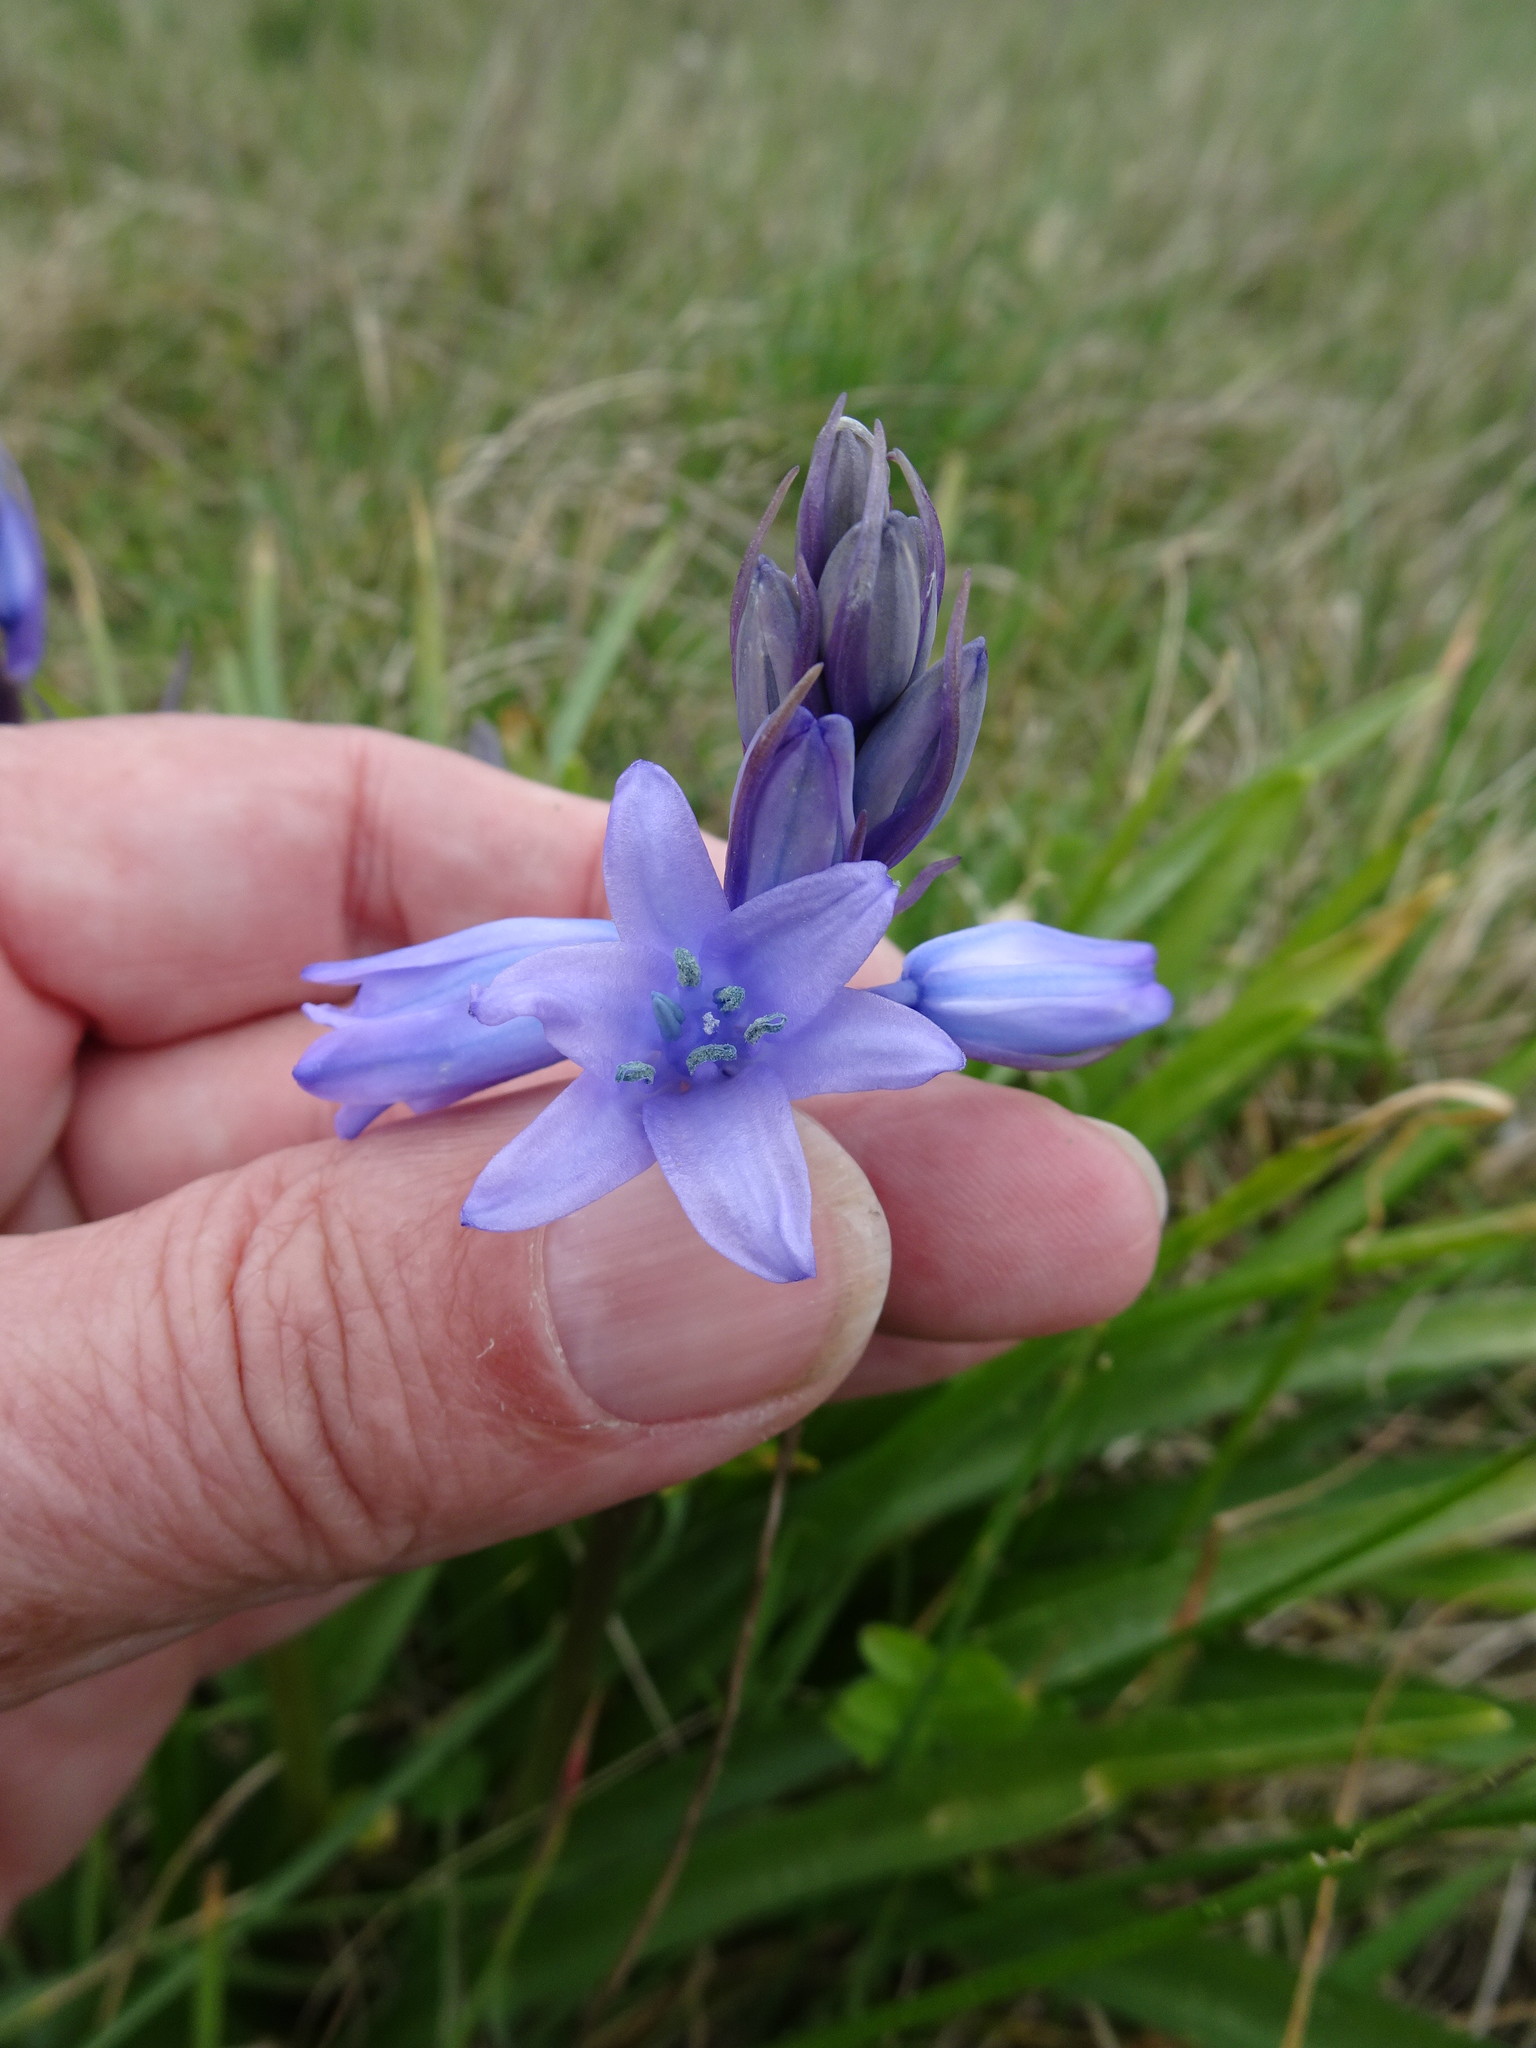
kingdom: Plantae
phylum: Tracheophyta
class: Liliopsida
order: Asparagales
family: Asparagaceae
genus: Hyacinthoides
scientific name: Hyacinthoides hispanica
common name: Spanish bluebell
